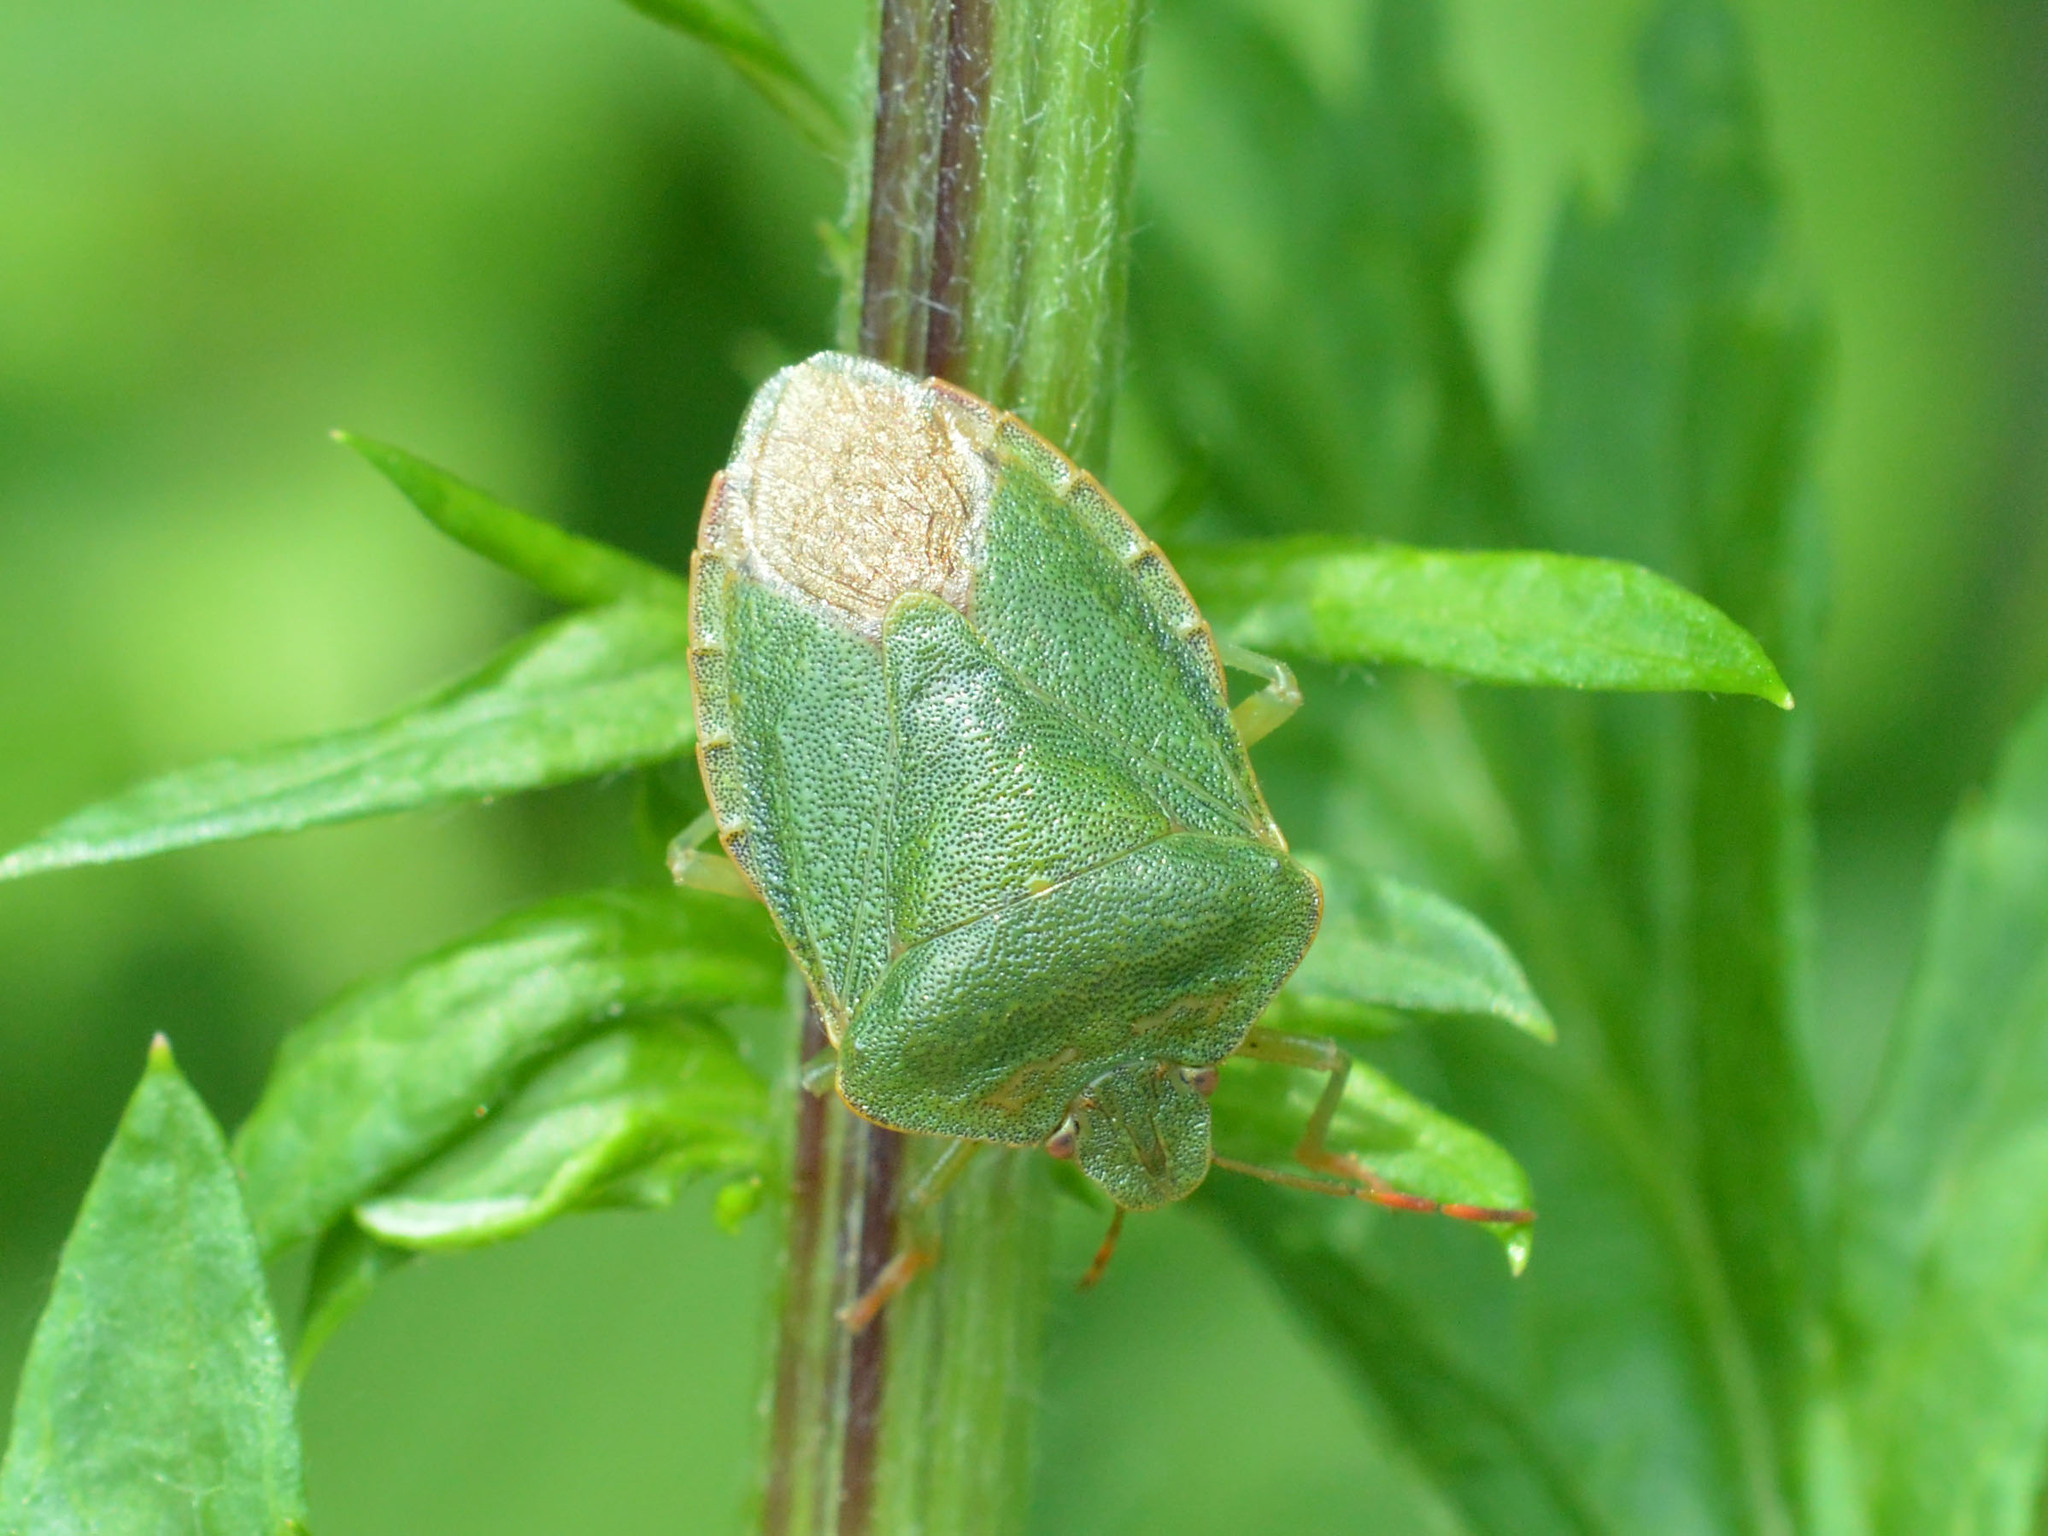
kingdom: Animalia
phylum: Arthropoda
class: Insecta
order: Hemiptera
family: Pentatomidae
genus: Palomena
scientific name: Palomena prasina
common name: Green shieldbug
